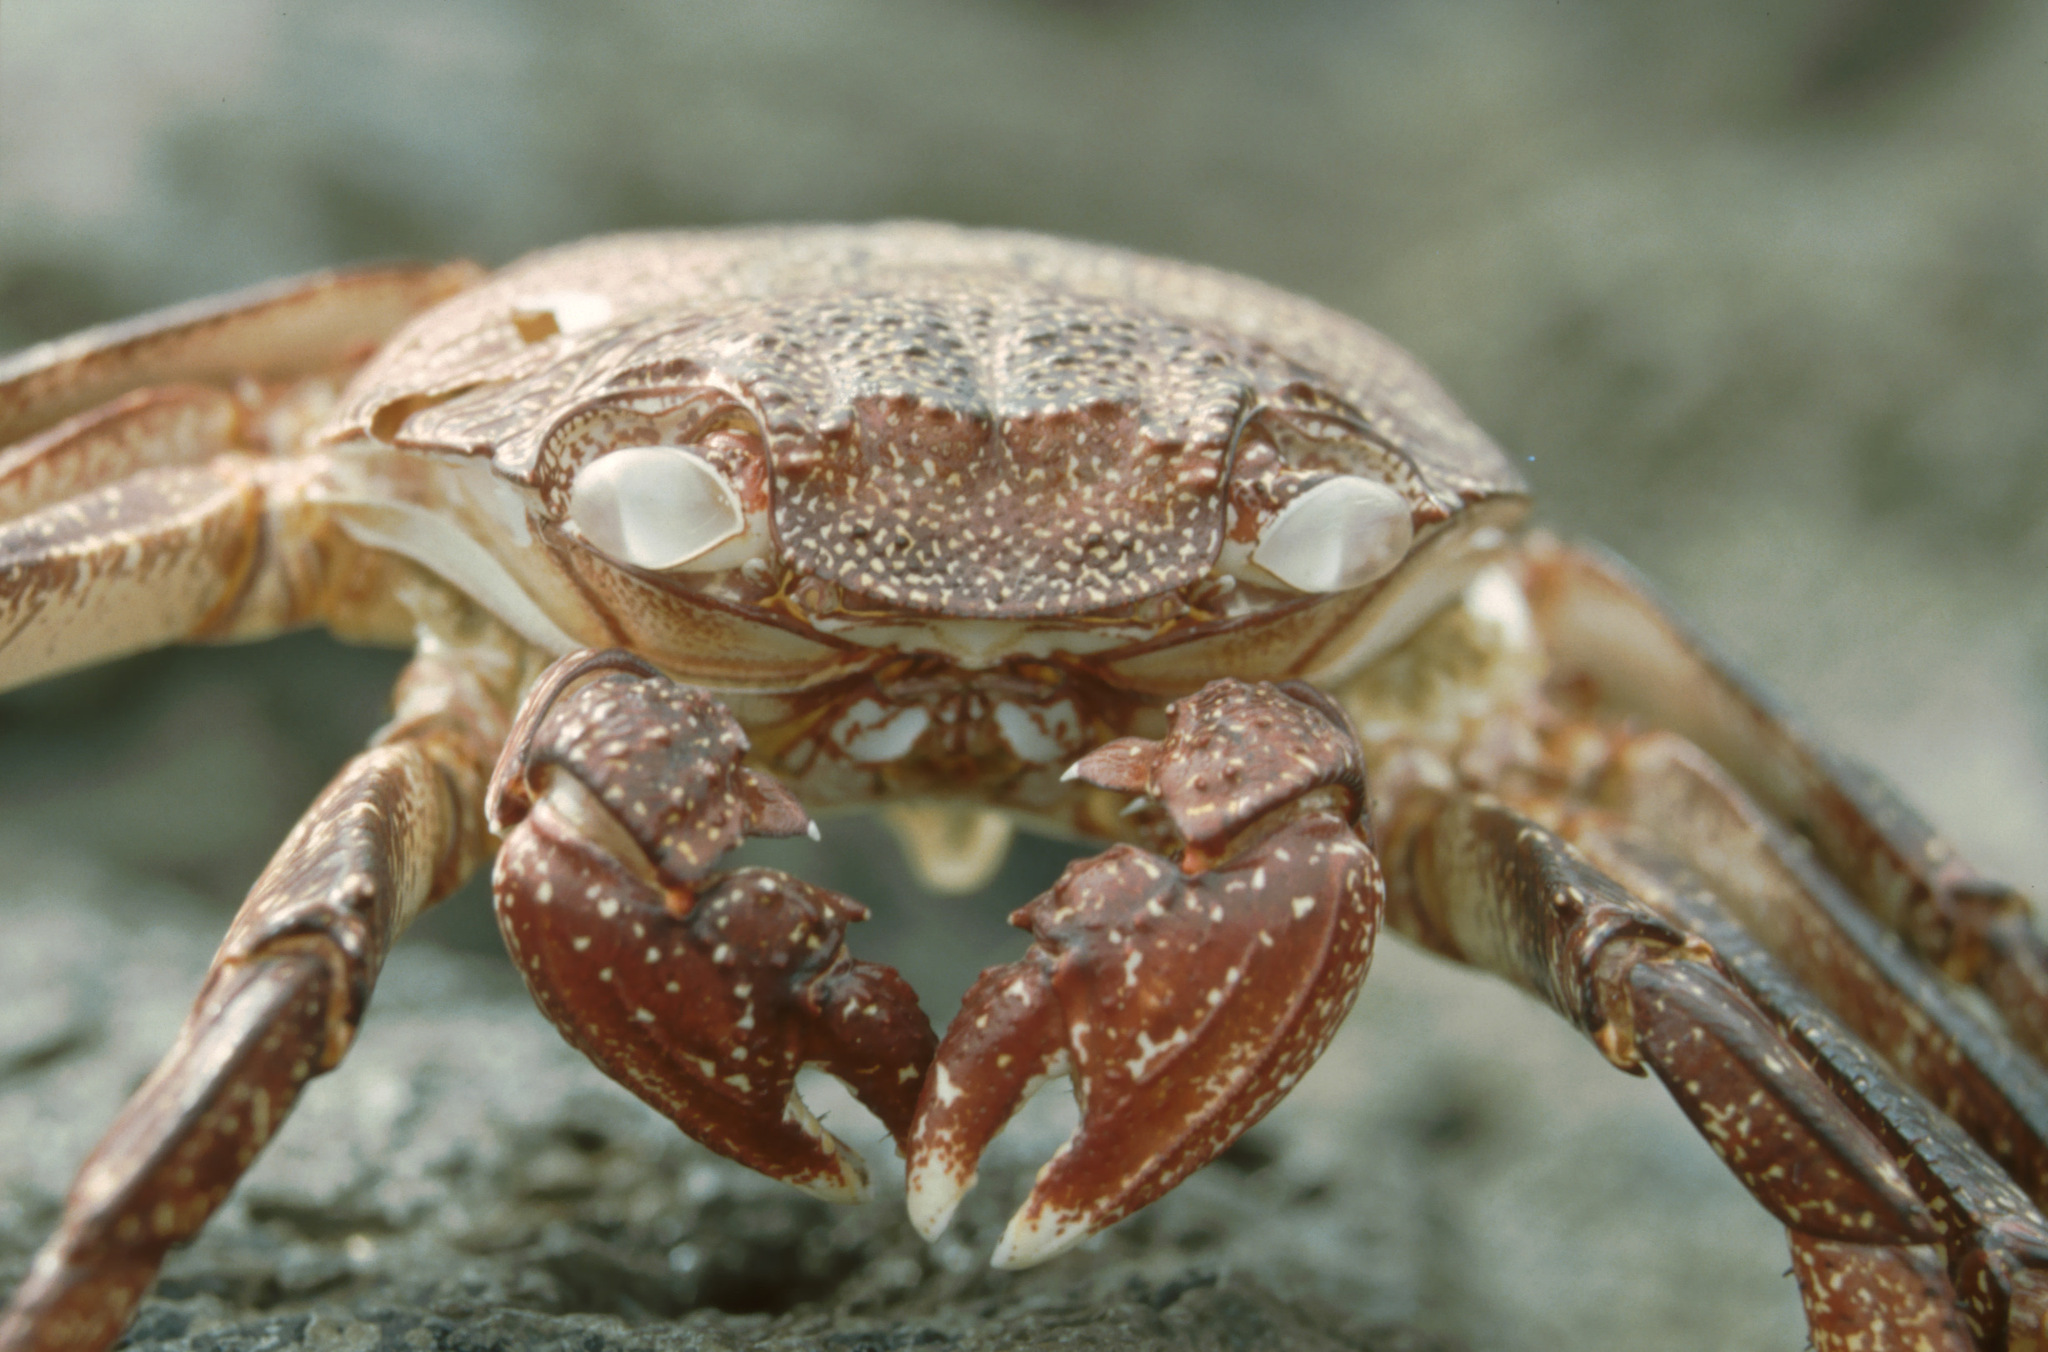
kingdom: Animalia
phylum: Arthropoda
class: Malacostraca
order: Decapoda
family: Grapsidae
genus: Grapsus
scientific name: Grapsus adscensionis
